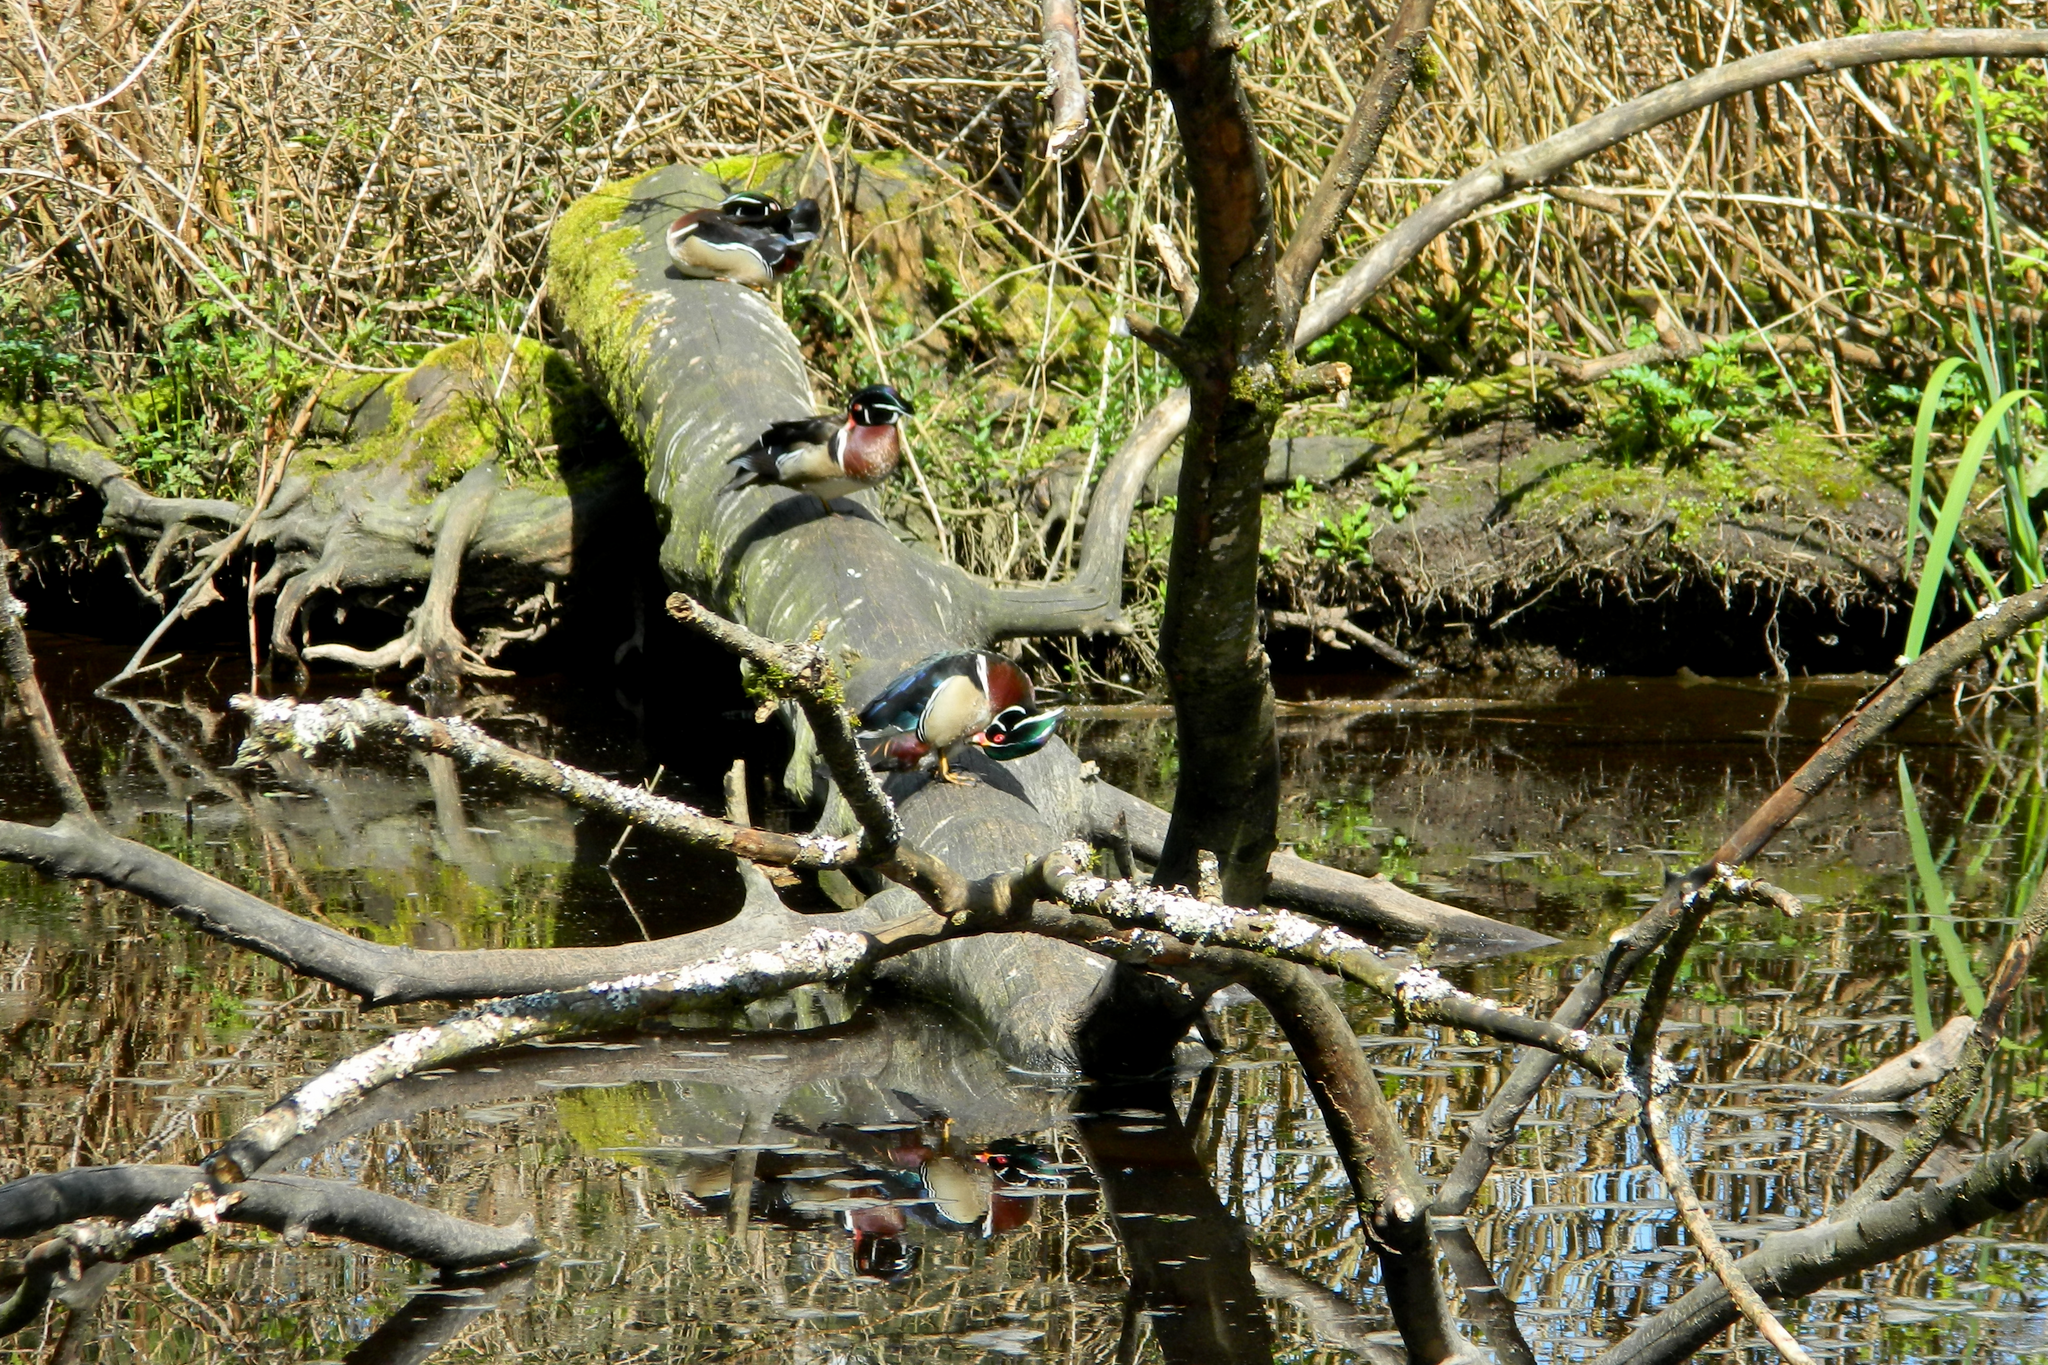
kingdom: Animalia
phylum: Chordata
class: Aves
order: Anseriformes
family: Anatidae
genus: Aix
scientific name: Aix sponsa
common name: Wood duck
